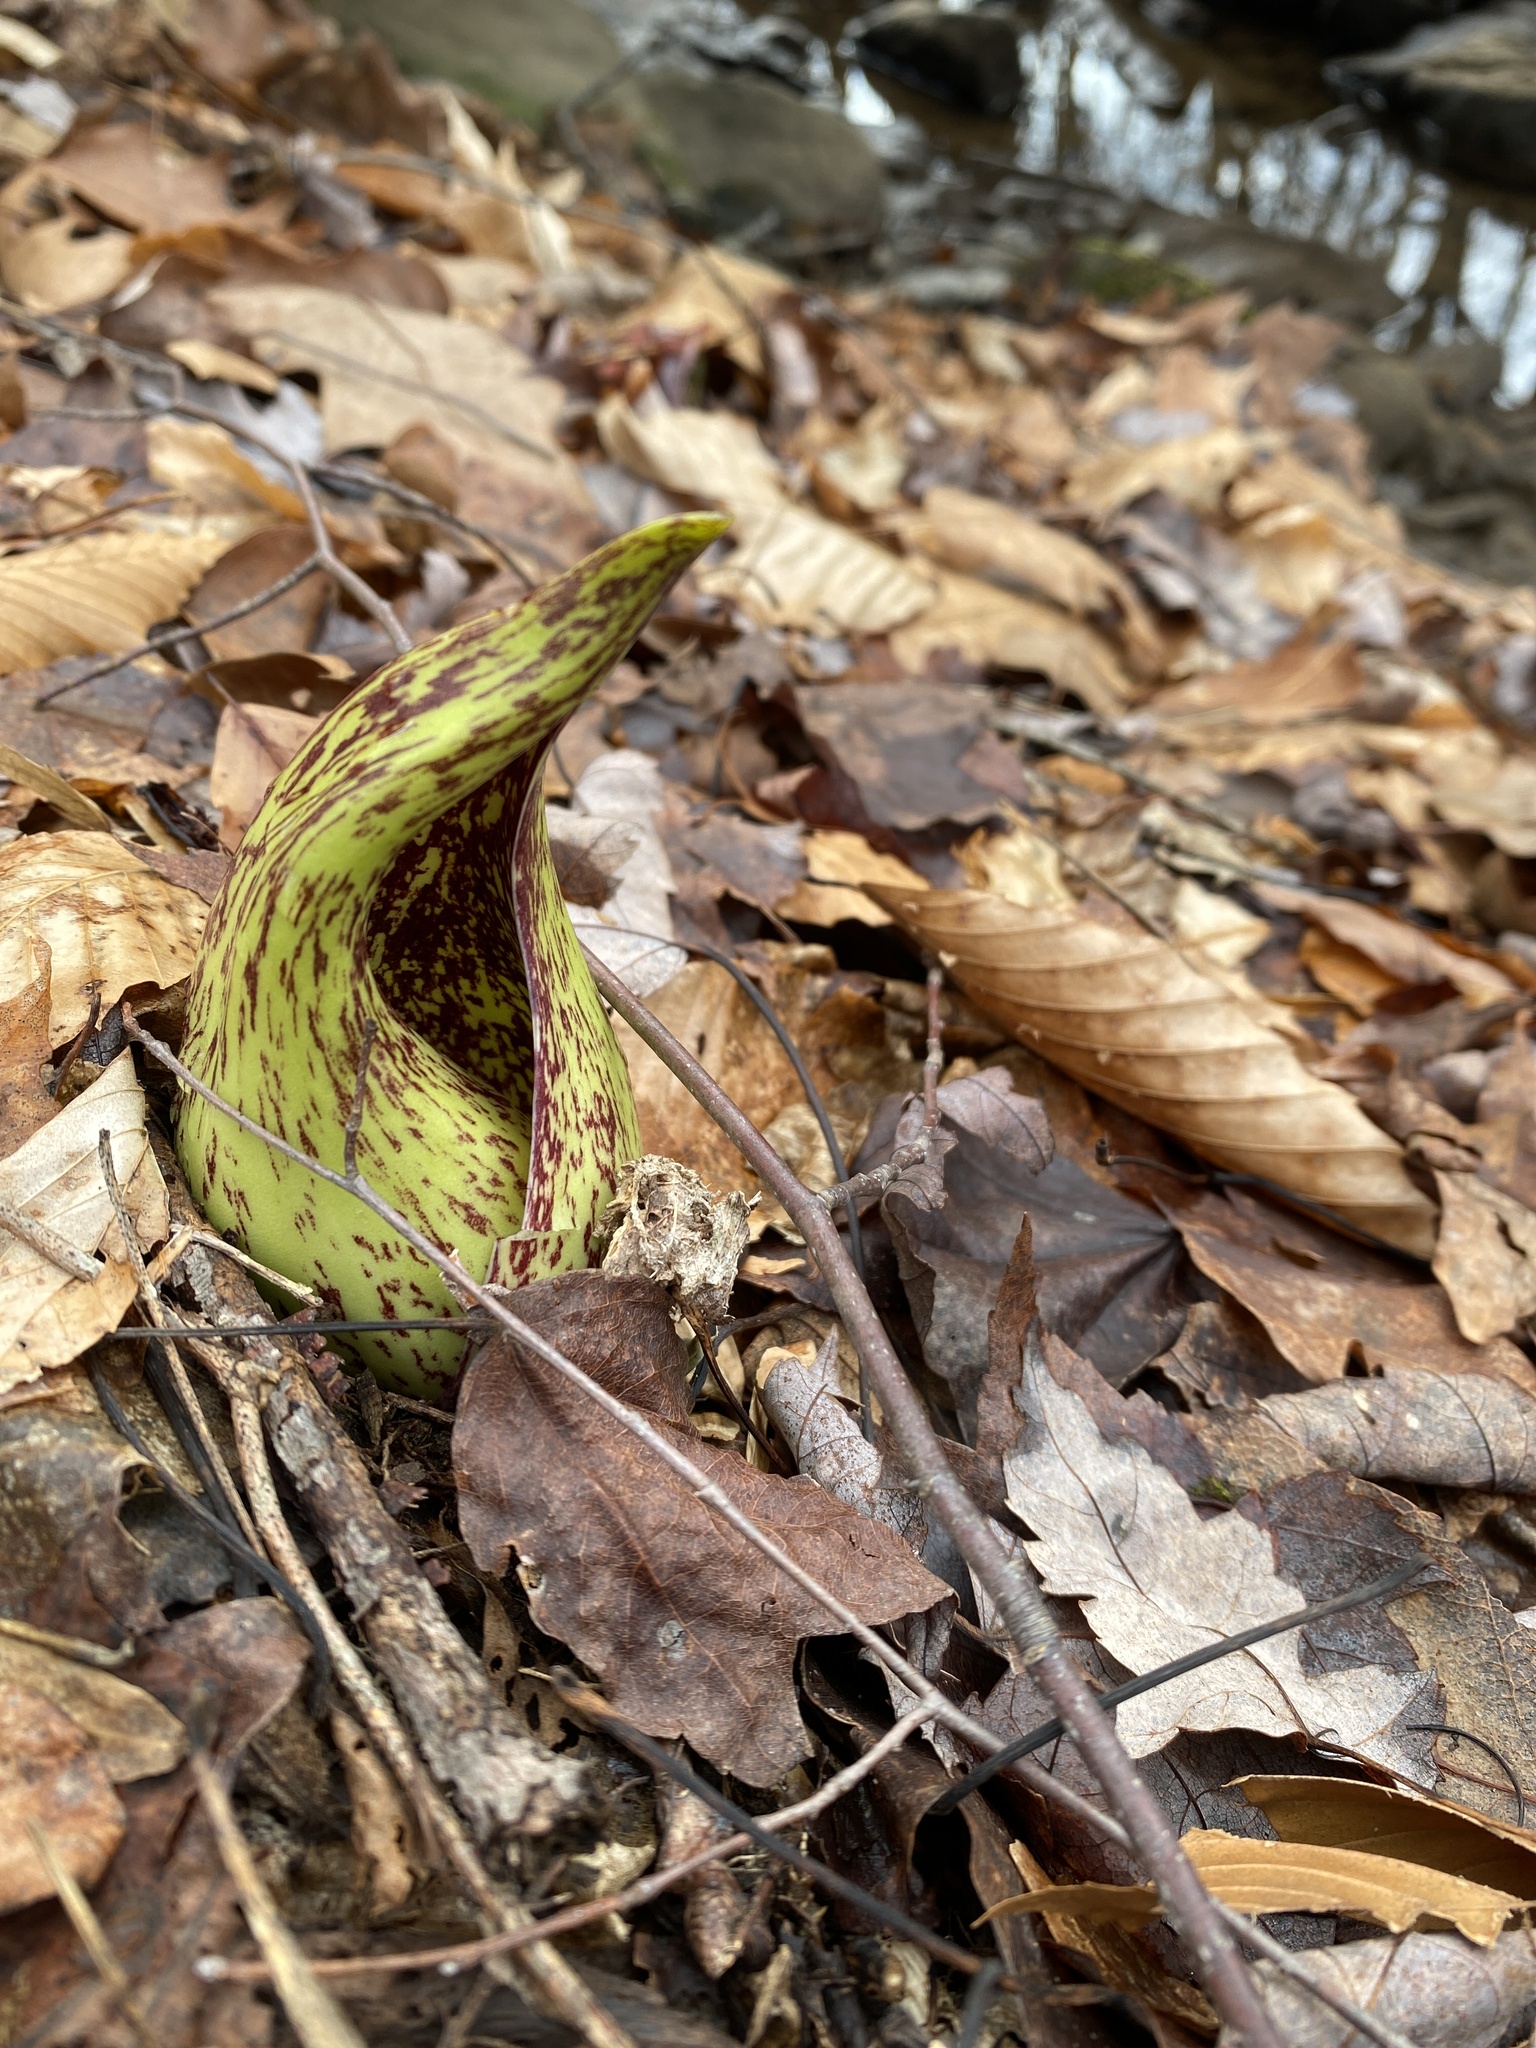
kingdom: Plantae
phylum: Tracheophyta
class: Liliopsida
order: Alismatales
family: Araceae
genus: Symplocarpus
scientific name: Symplocarpus foetidus
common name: Eastern skunk cabbage
